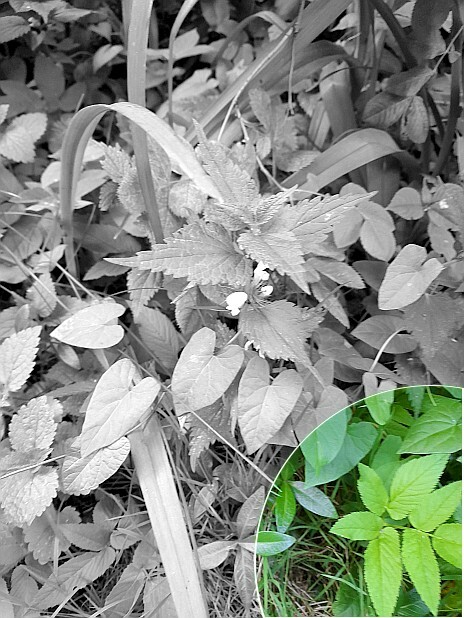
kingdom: Plantae
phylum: Tracheophyta
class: Magnoliopsida
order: Apiales
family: Apiaceae
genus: Aegopodium
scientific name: Aegopodium podagraria
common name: Ground-elder
